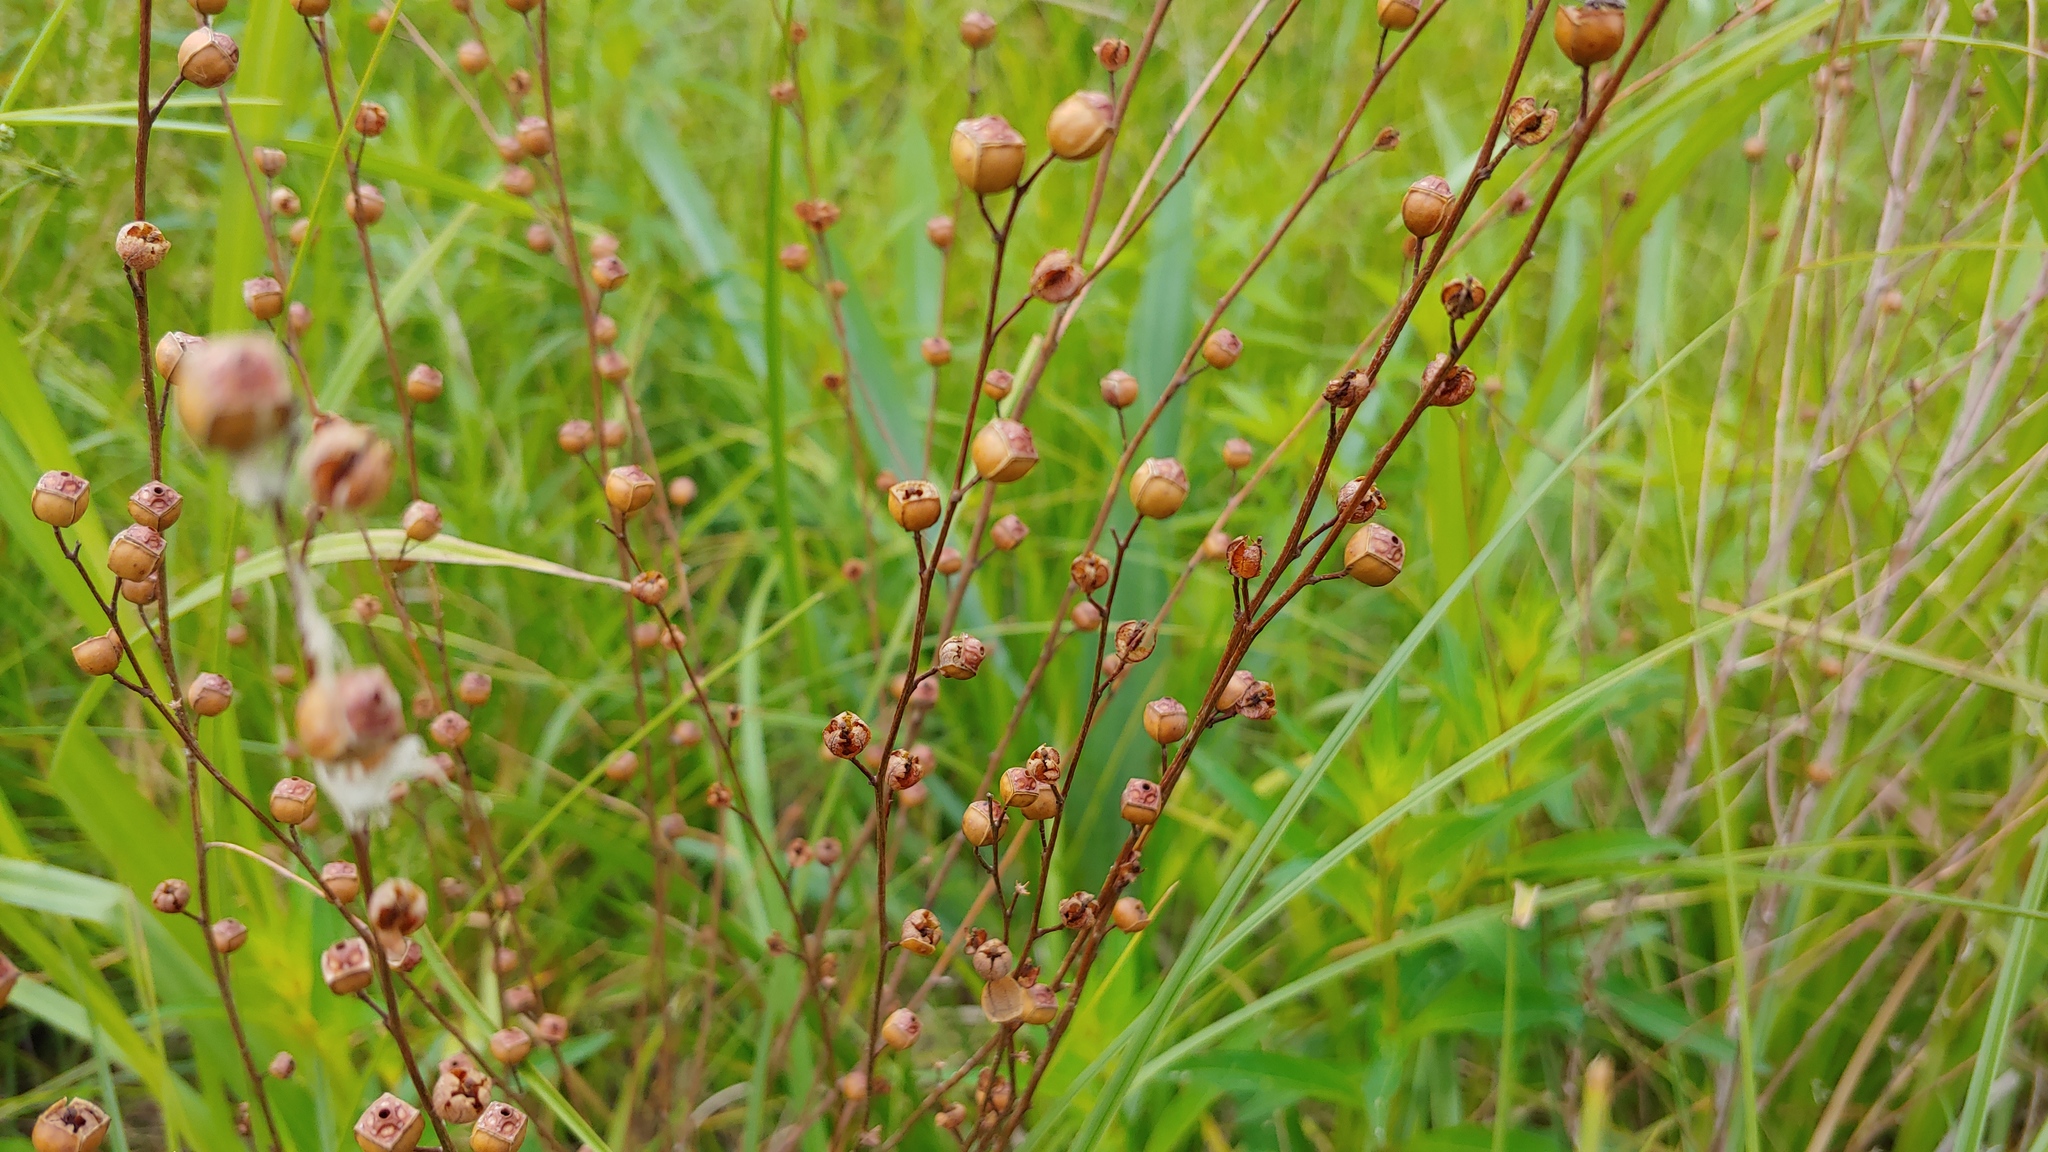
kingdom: Plantae
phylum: Tracheophyta
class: Magnoliopsida
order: Myrtales
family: Onagraceae
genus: Ludwigia
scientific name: Ludwigia alternifolia
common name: Rattlebox
